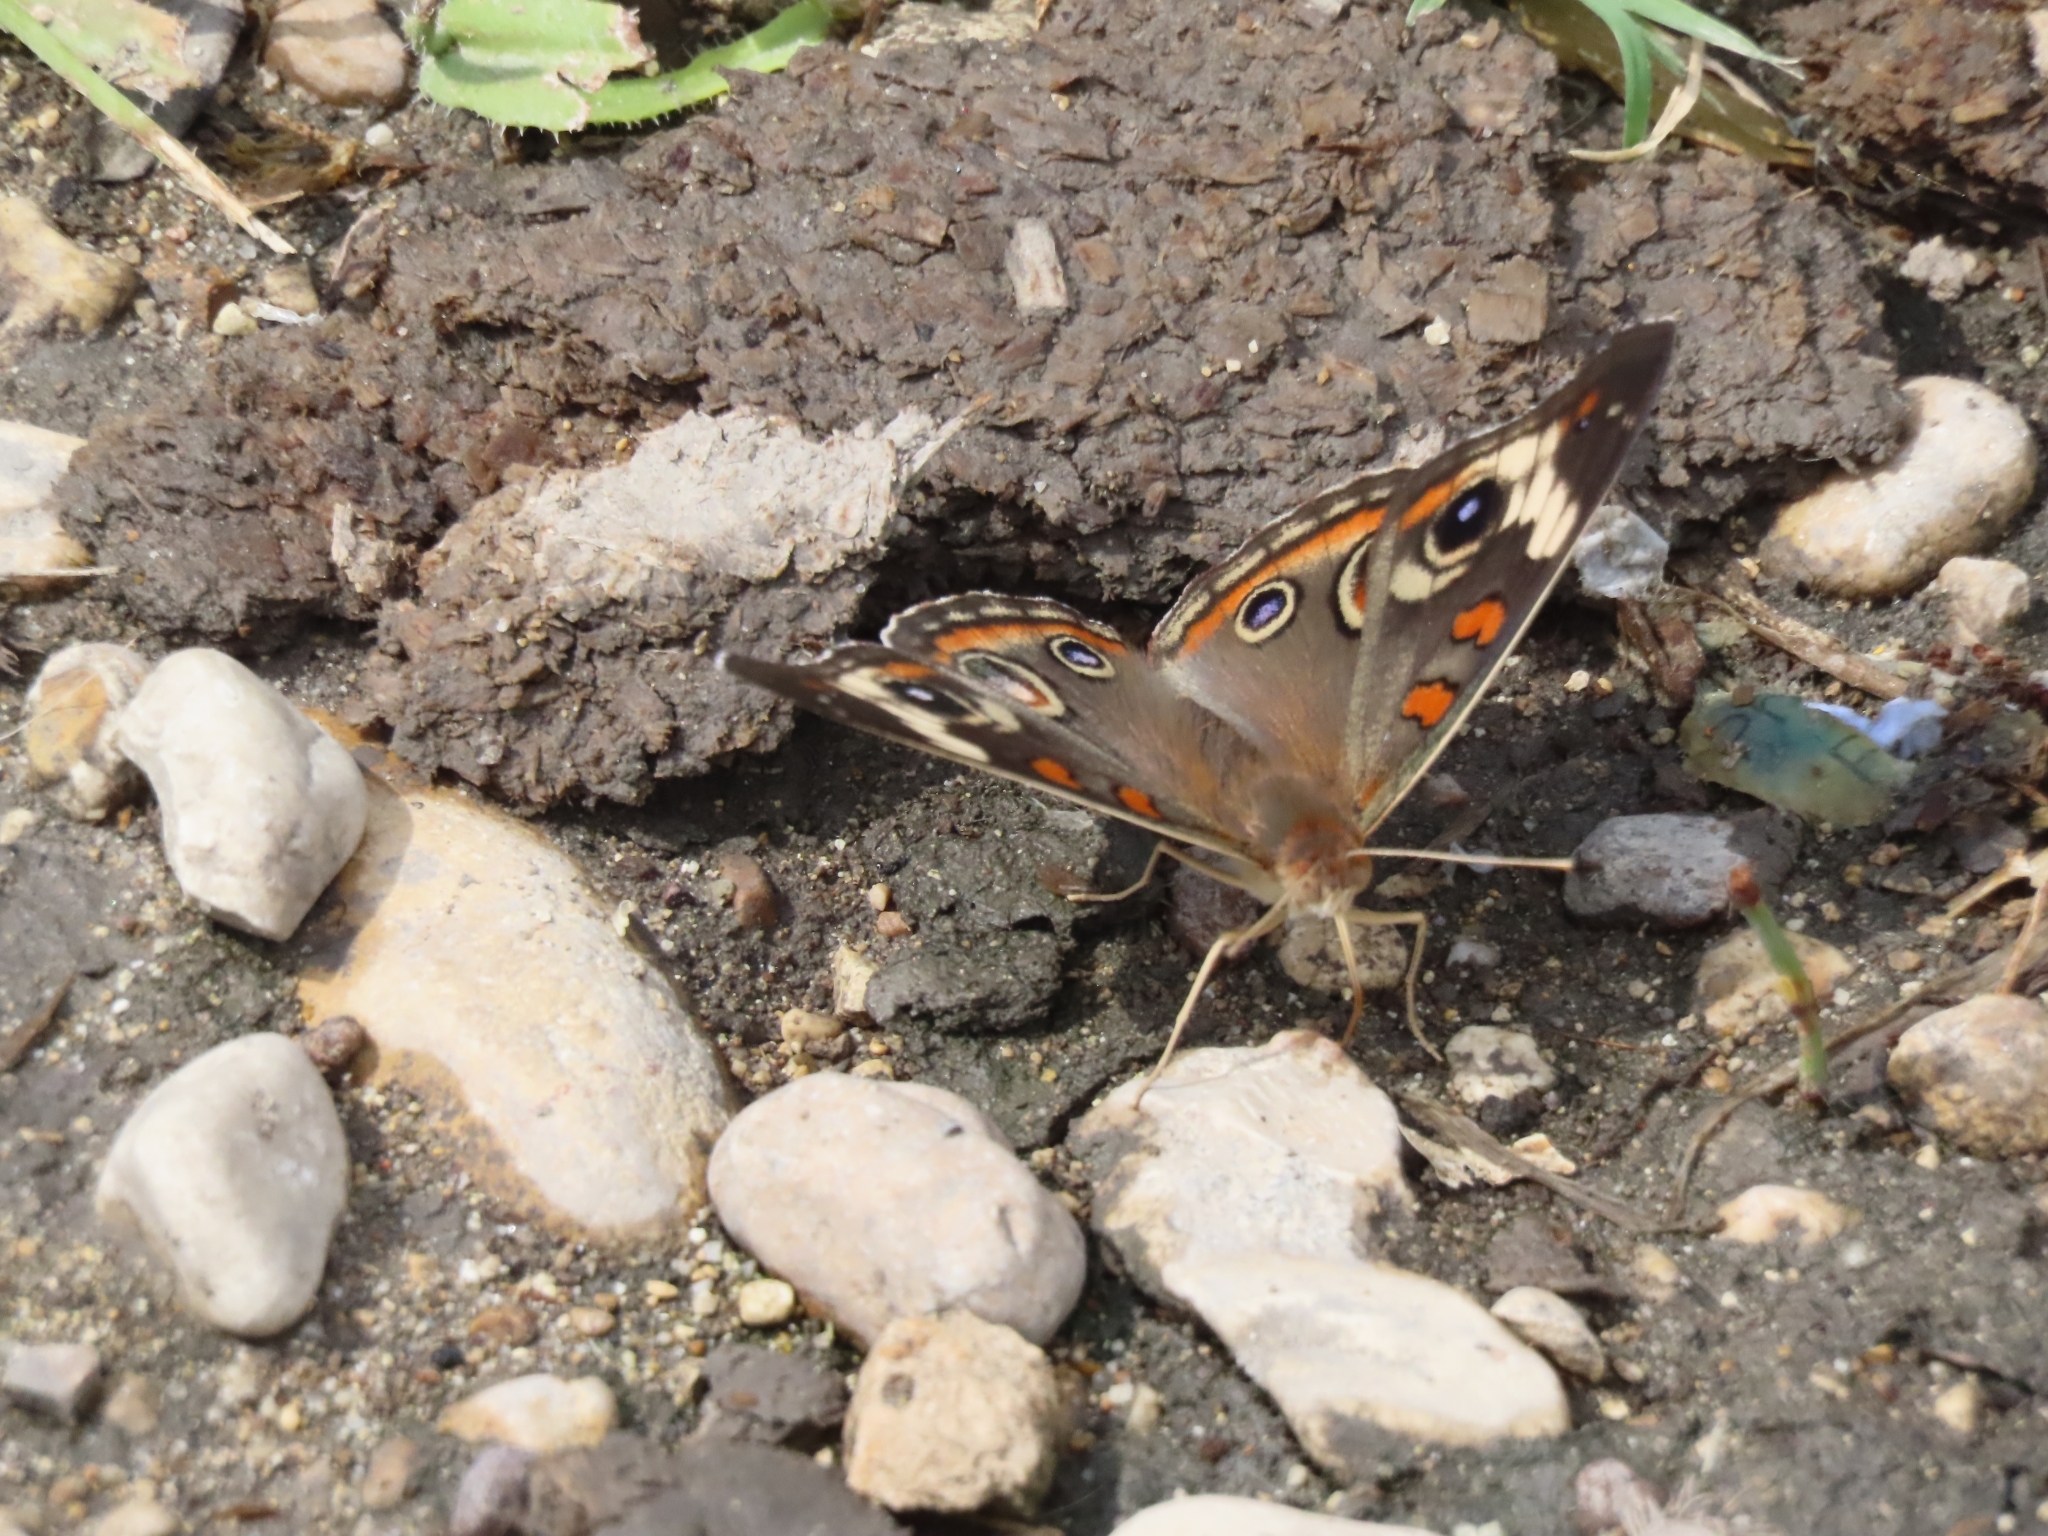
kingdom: Animalia
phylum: Arthropoda
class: Insecta
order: Lepidoptera
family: Nymphalidae
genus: Junonia
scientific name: Junonia coenia
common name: Common buckeye
